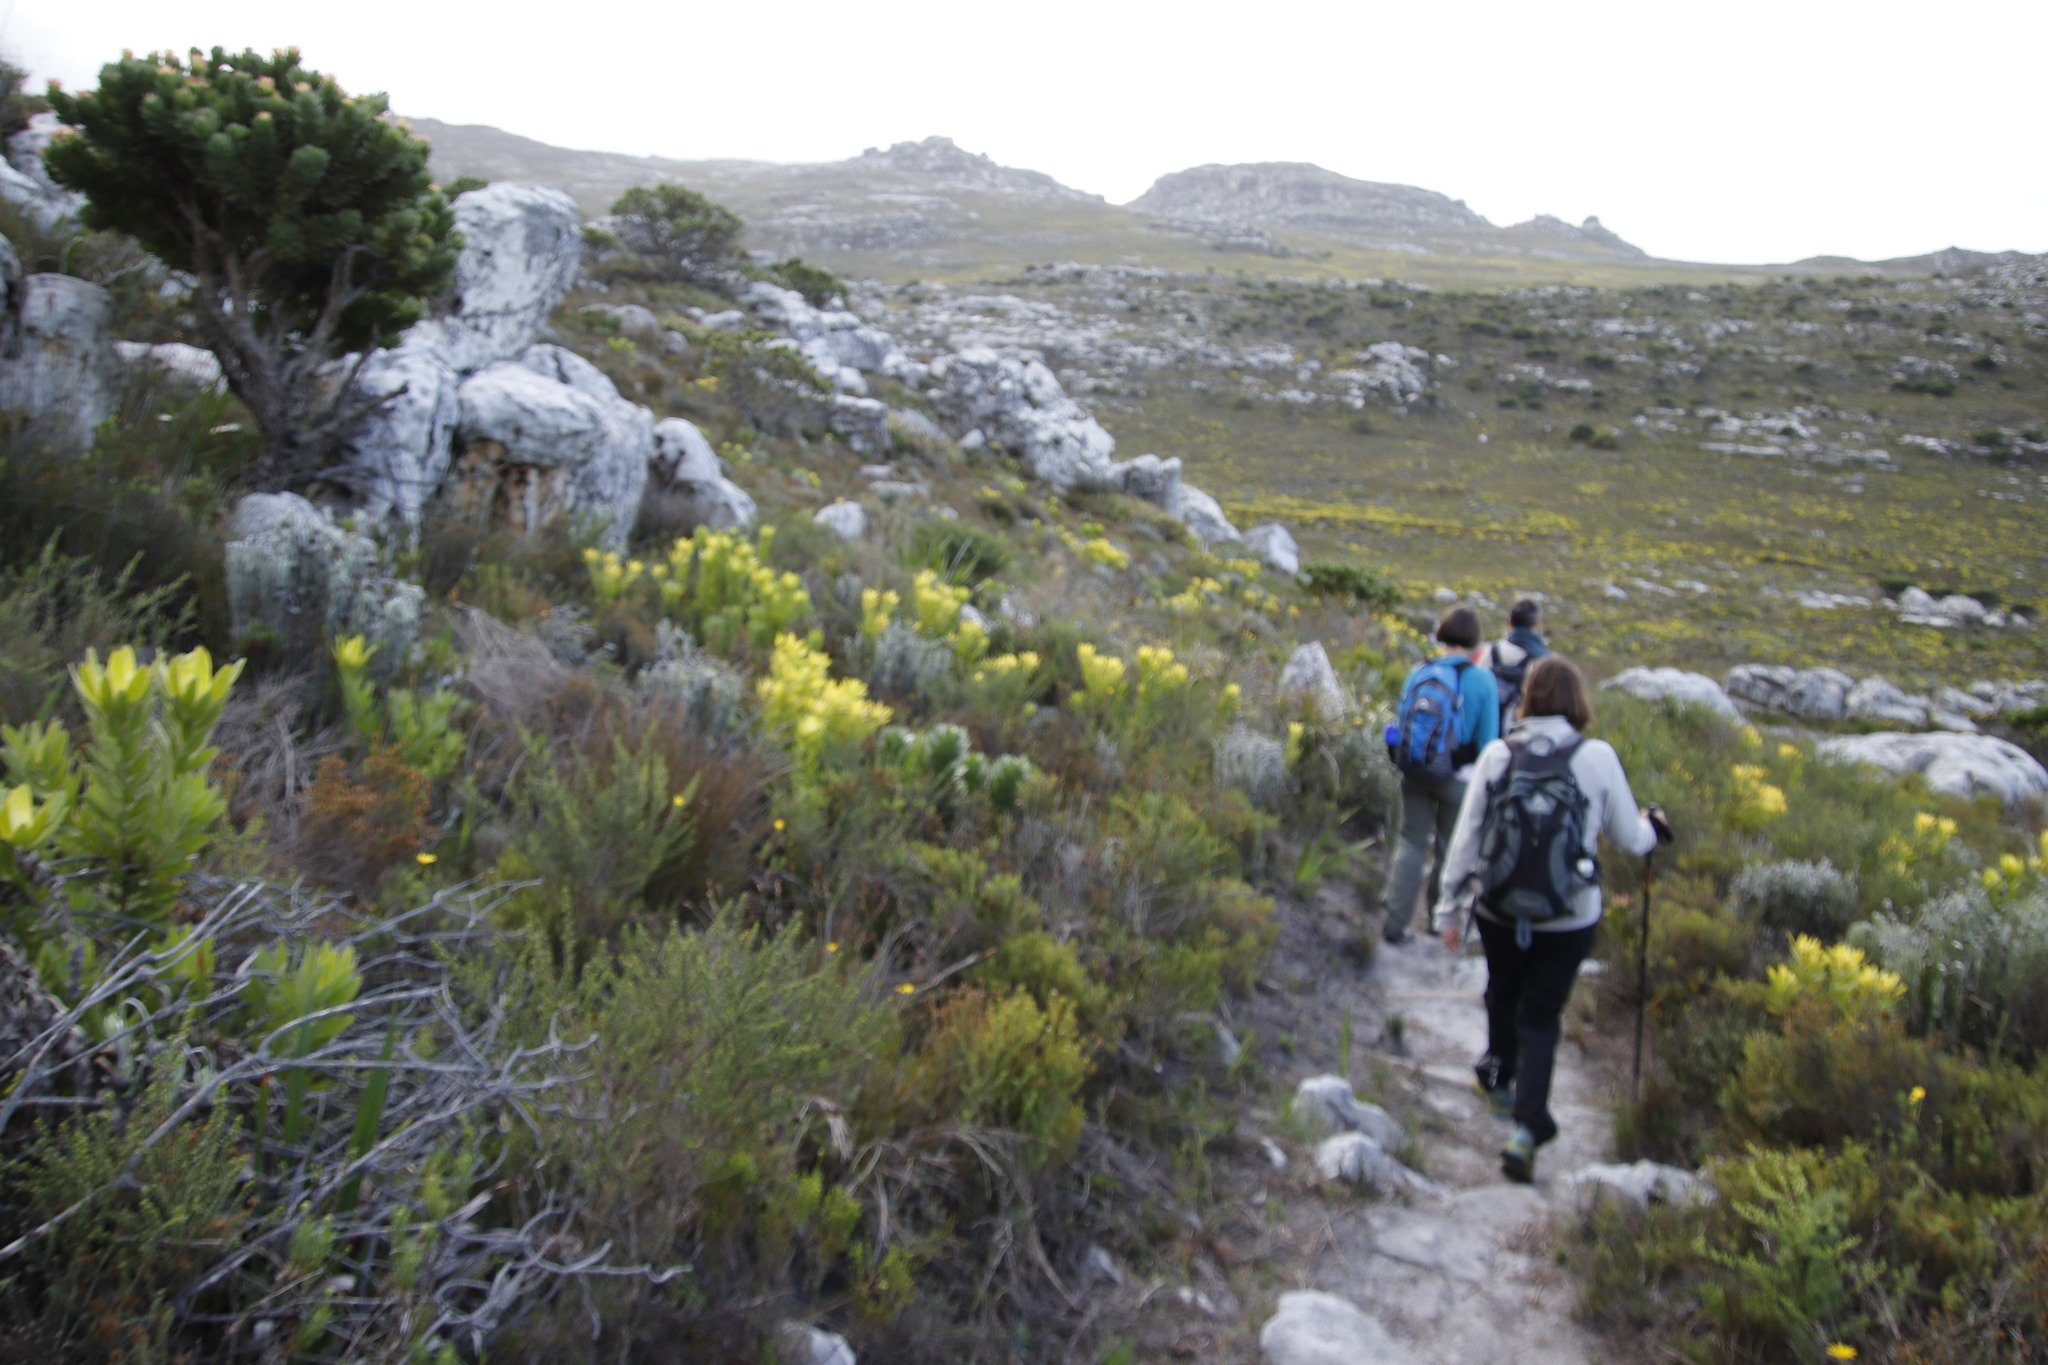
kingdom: Plantae
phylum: Tracheophyta
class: Magnoliopsida
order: Proteales
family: Proteaceae
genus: Leucadendron
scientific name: Leucadendron laureolum
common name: Golden sunshinebush
